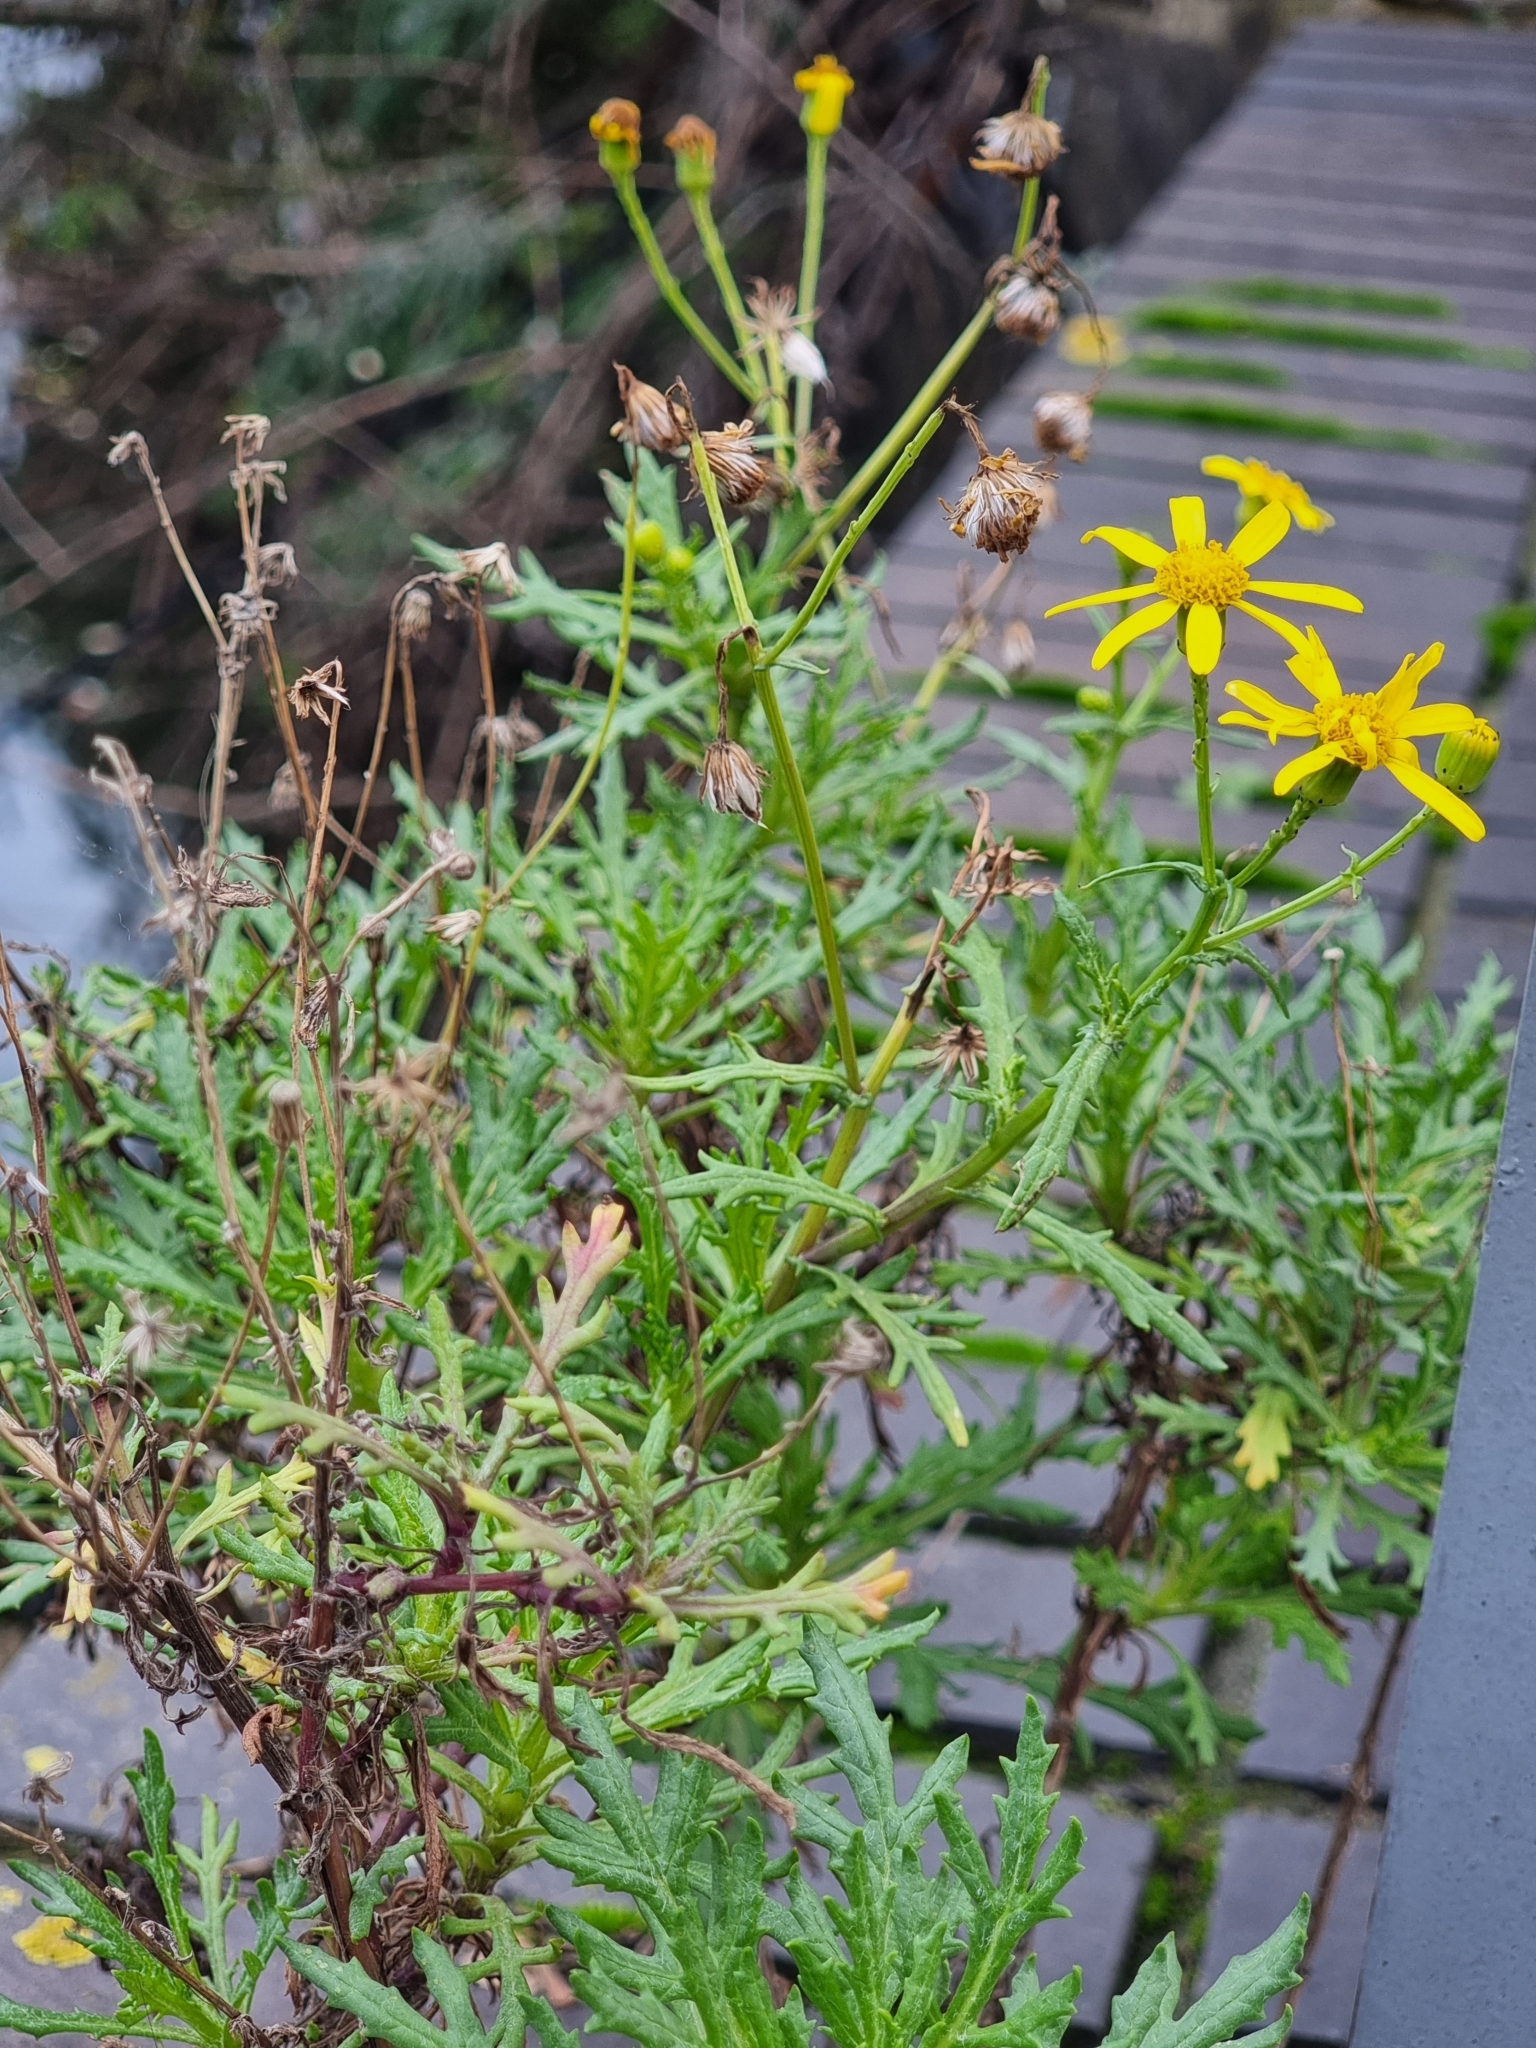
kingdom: Plantae
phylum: Tracheophyta
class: Magnoliopsida
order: Asterales
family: Asteraceae
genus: Senecio
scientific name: Senecio squalidus
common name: Oxford ragwort
